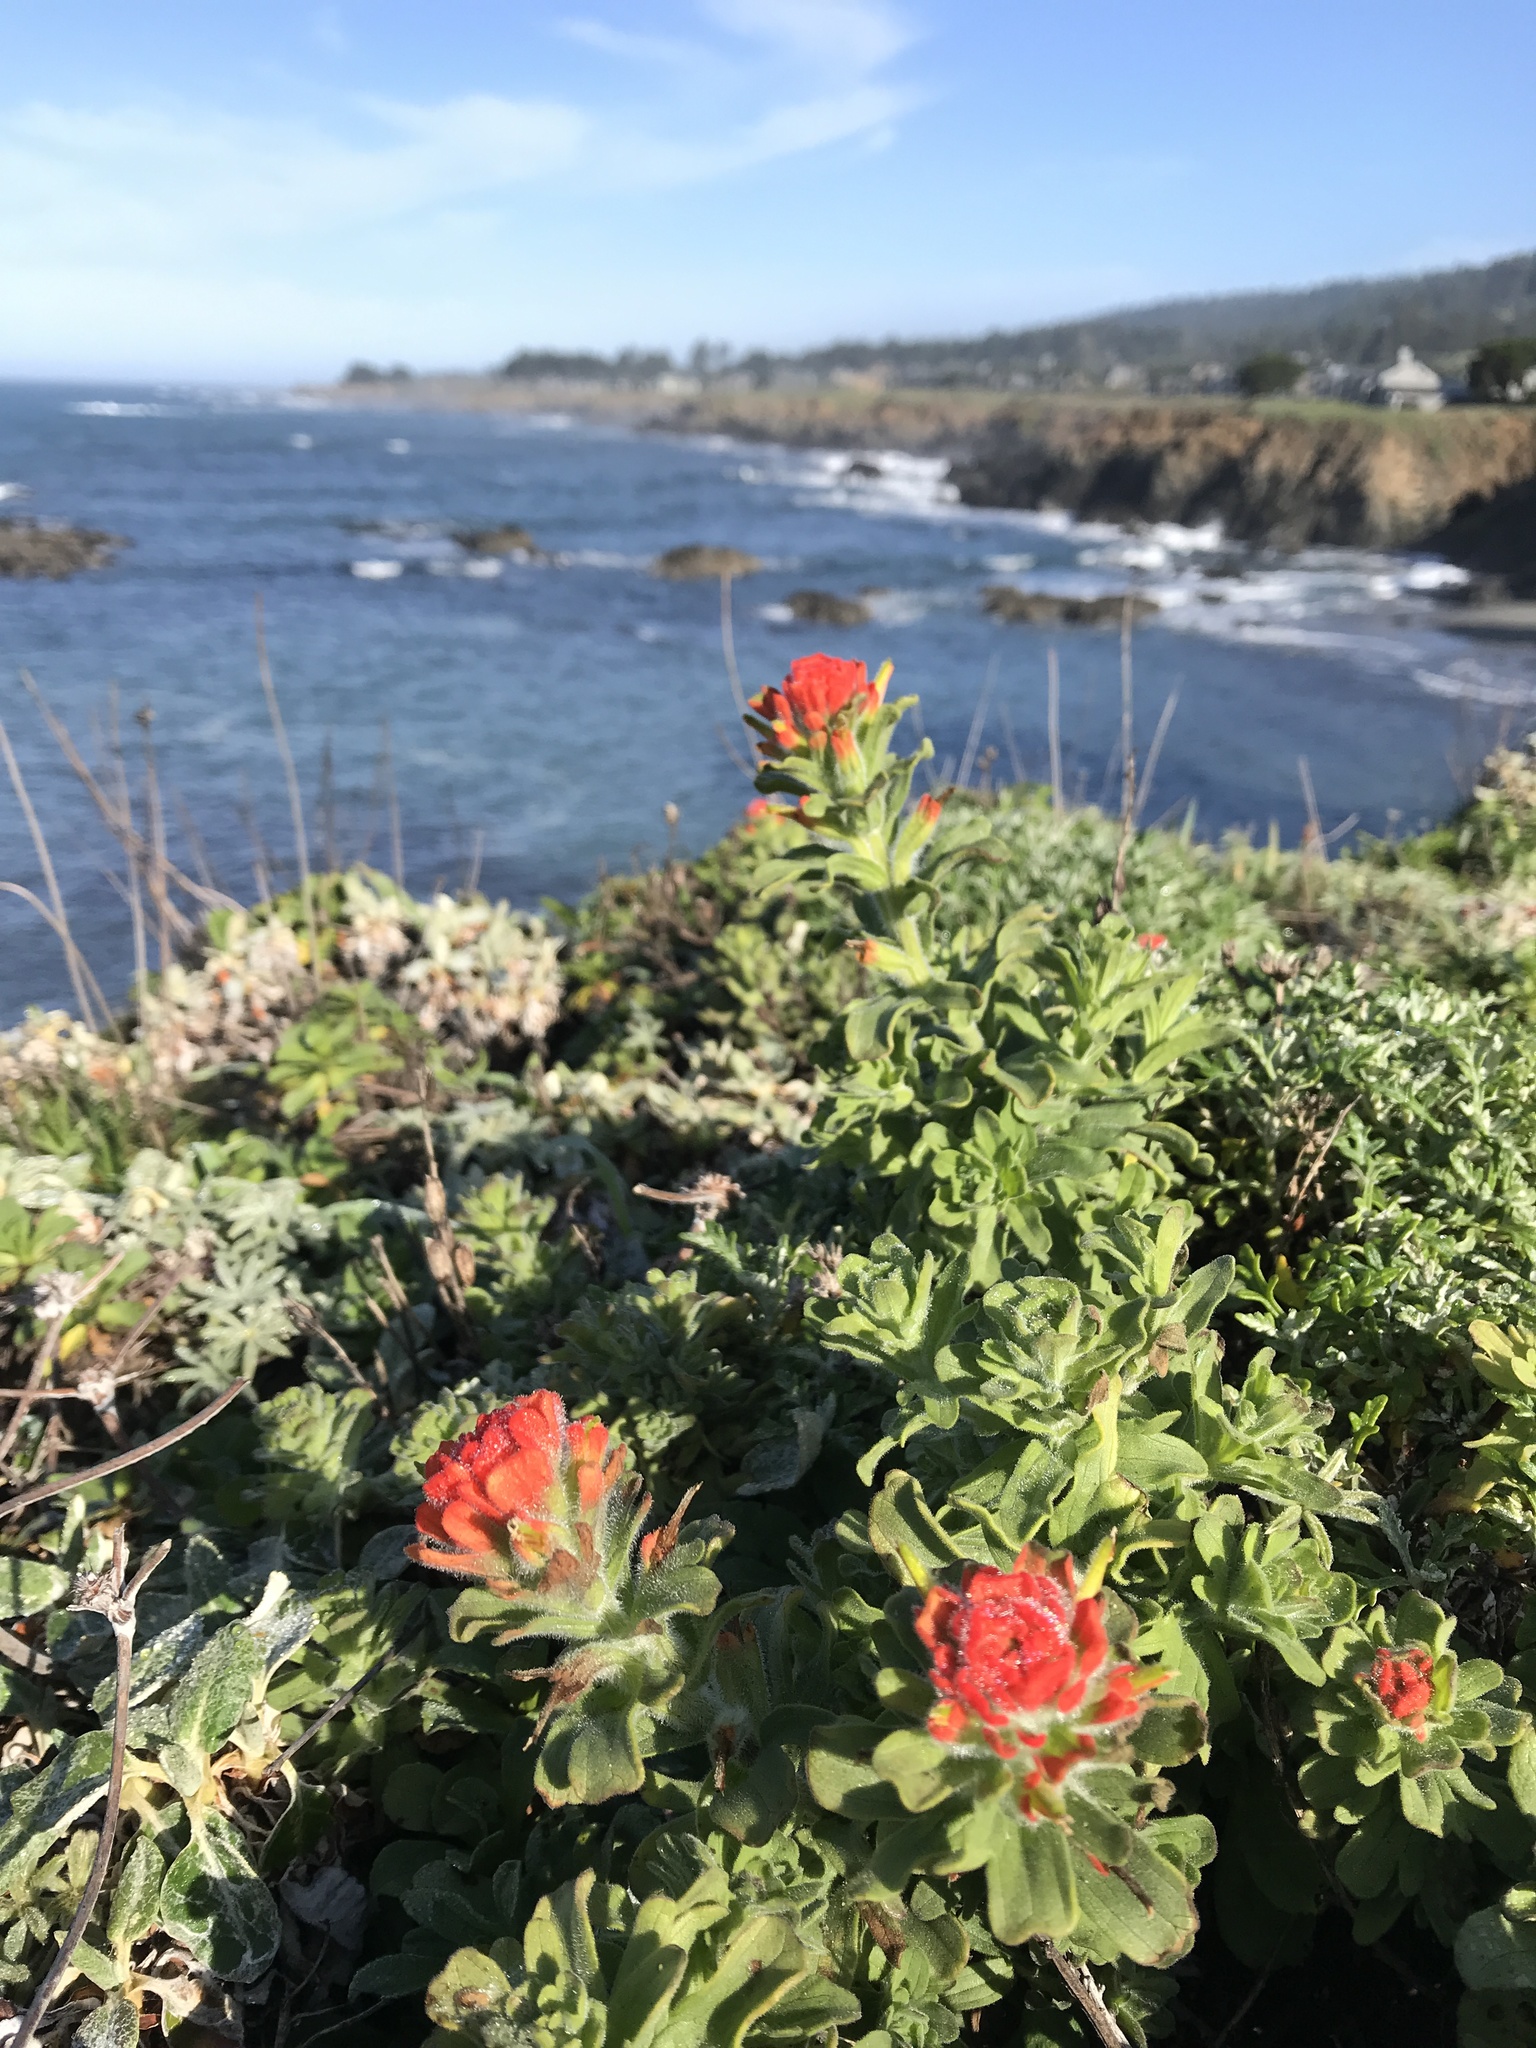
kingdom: Plantae
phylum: Tracheophyta
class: Magnoliopsida
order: Lamiales
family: Orobanchaceae
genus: Castilleja
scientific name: Castilleja wightii
